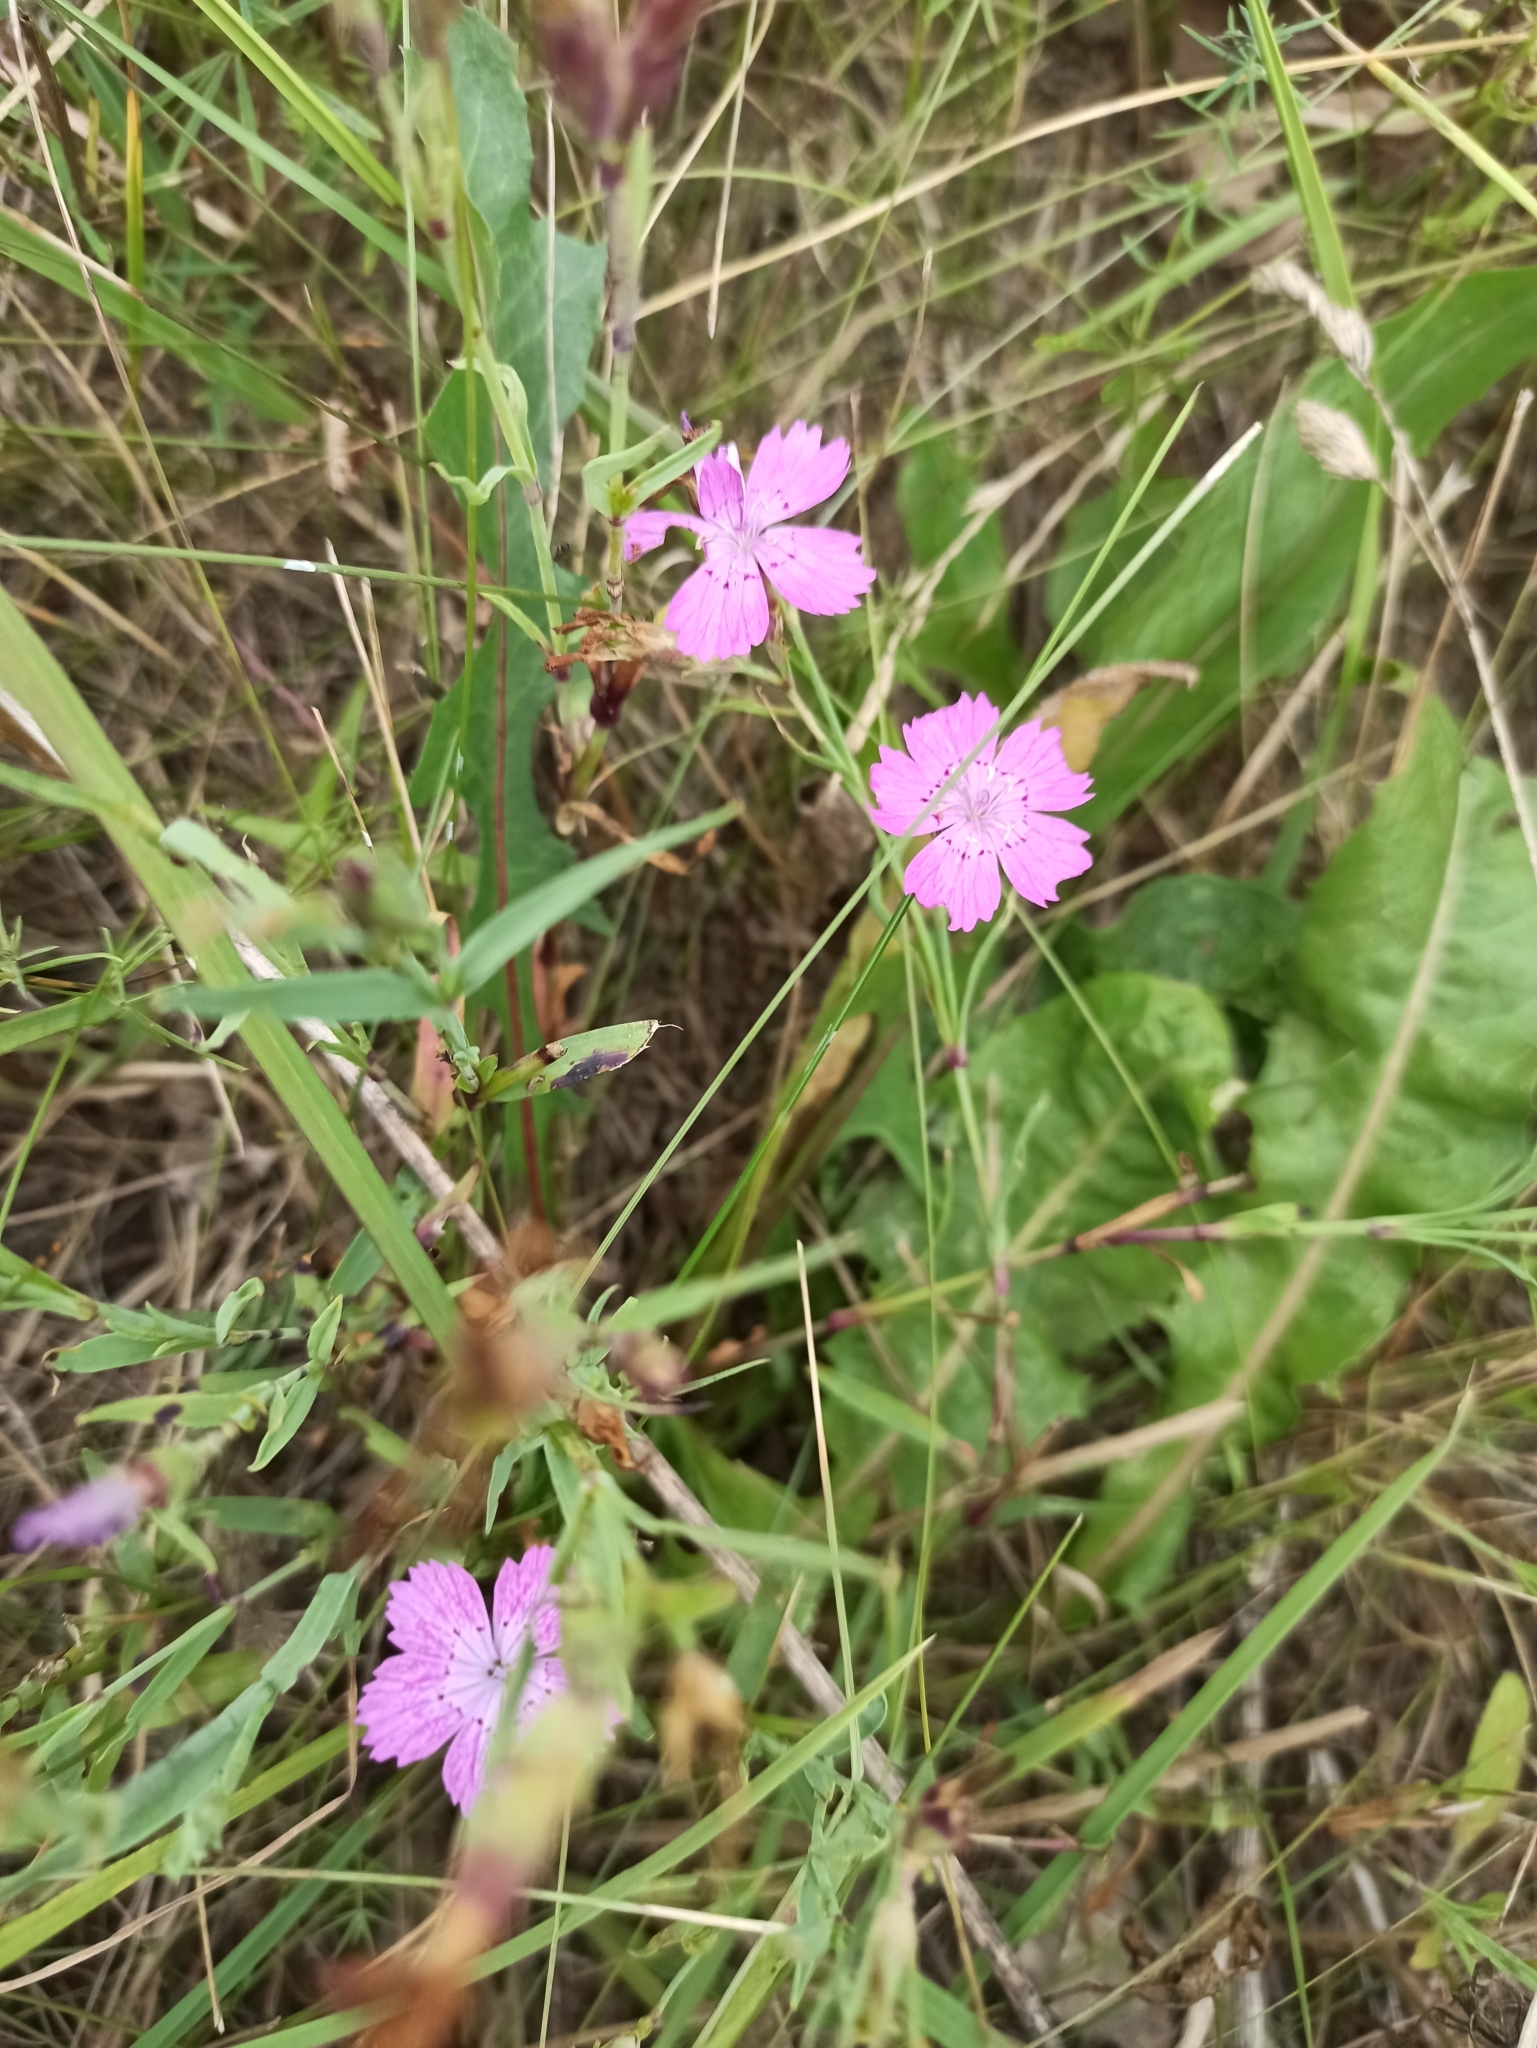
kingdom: Plantae
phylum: Tracheophyta
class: Magnoliopsida
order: Caryophyllales
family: Caryophyllaceae
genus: Dianthus
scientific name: Dianthus chinensis
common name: Rainbow pink
